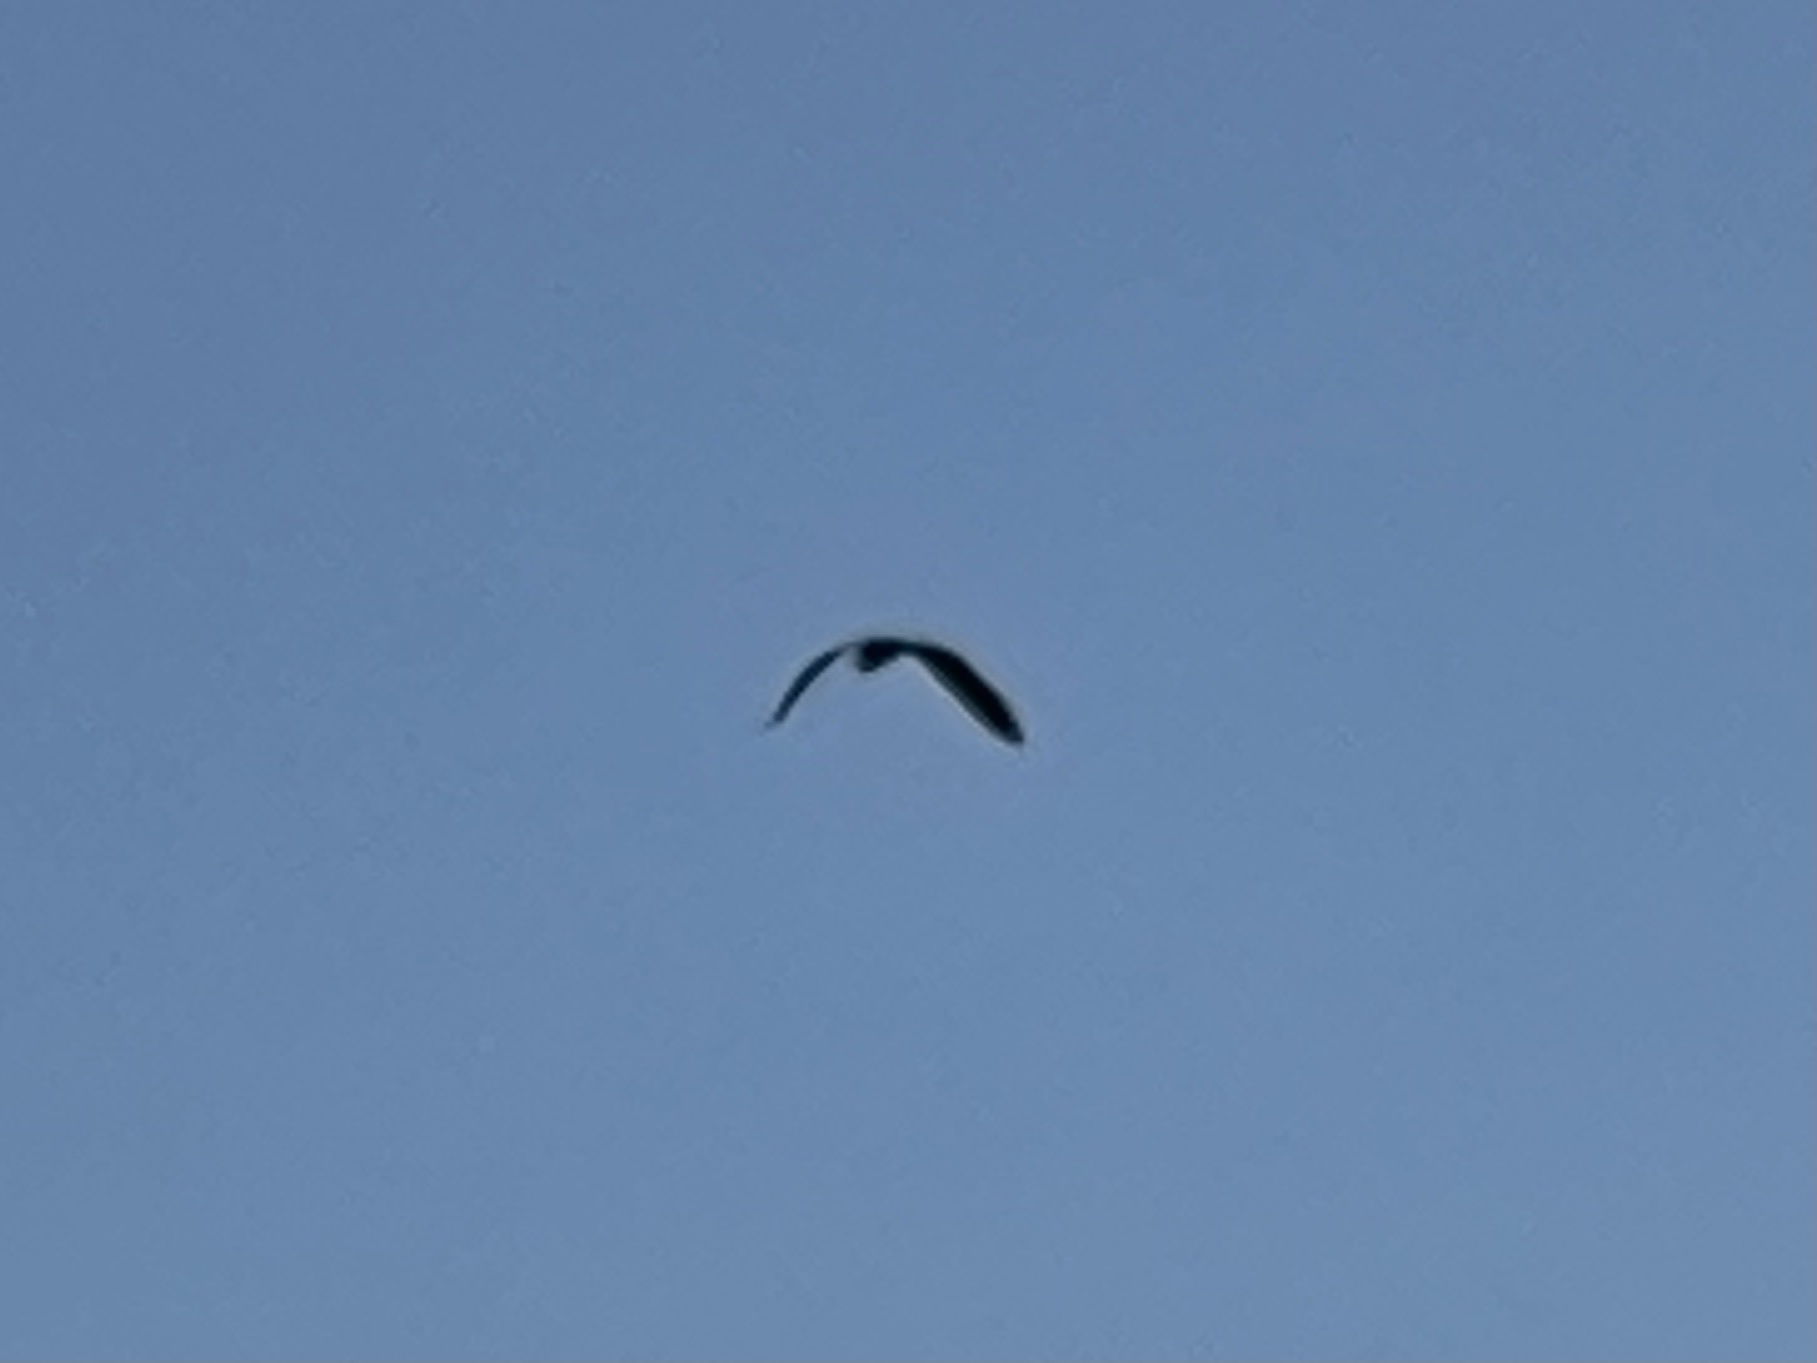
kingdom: Animalia
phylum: Chordata
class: Aves
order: Accipitriformes
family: Cathartidae
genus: Cathartes
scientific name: Cathartes aura
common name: Turkey vulture
